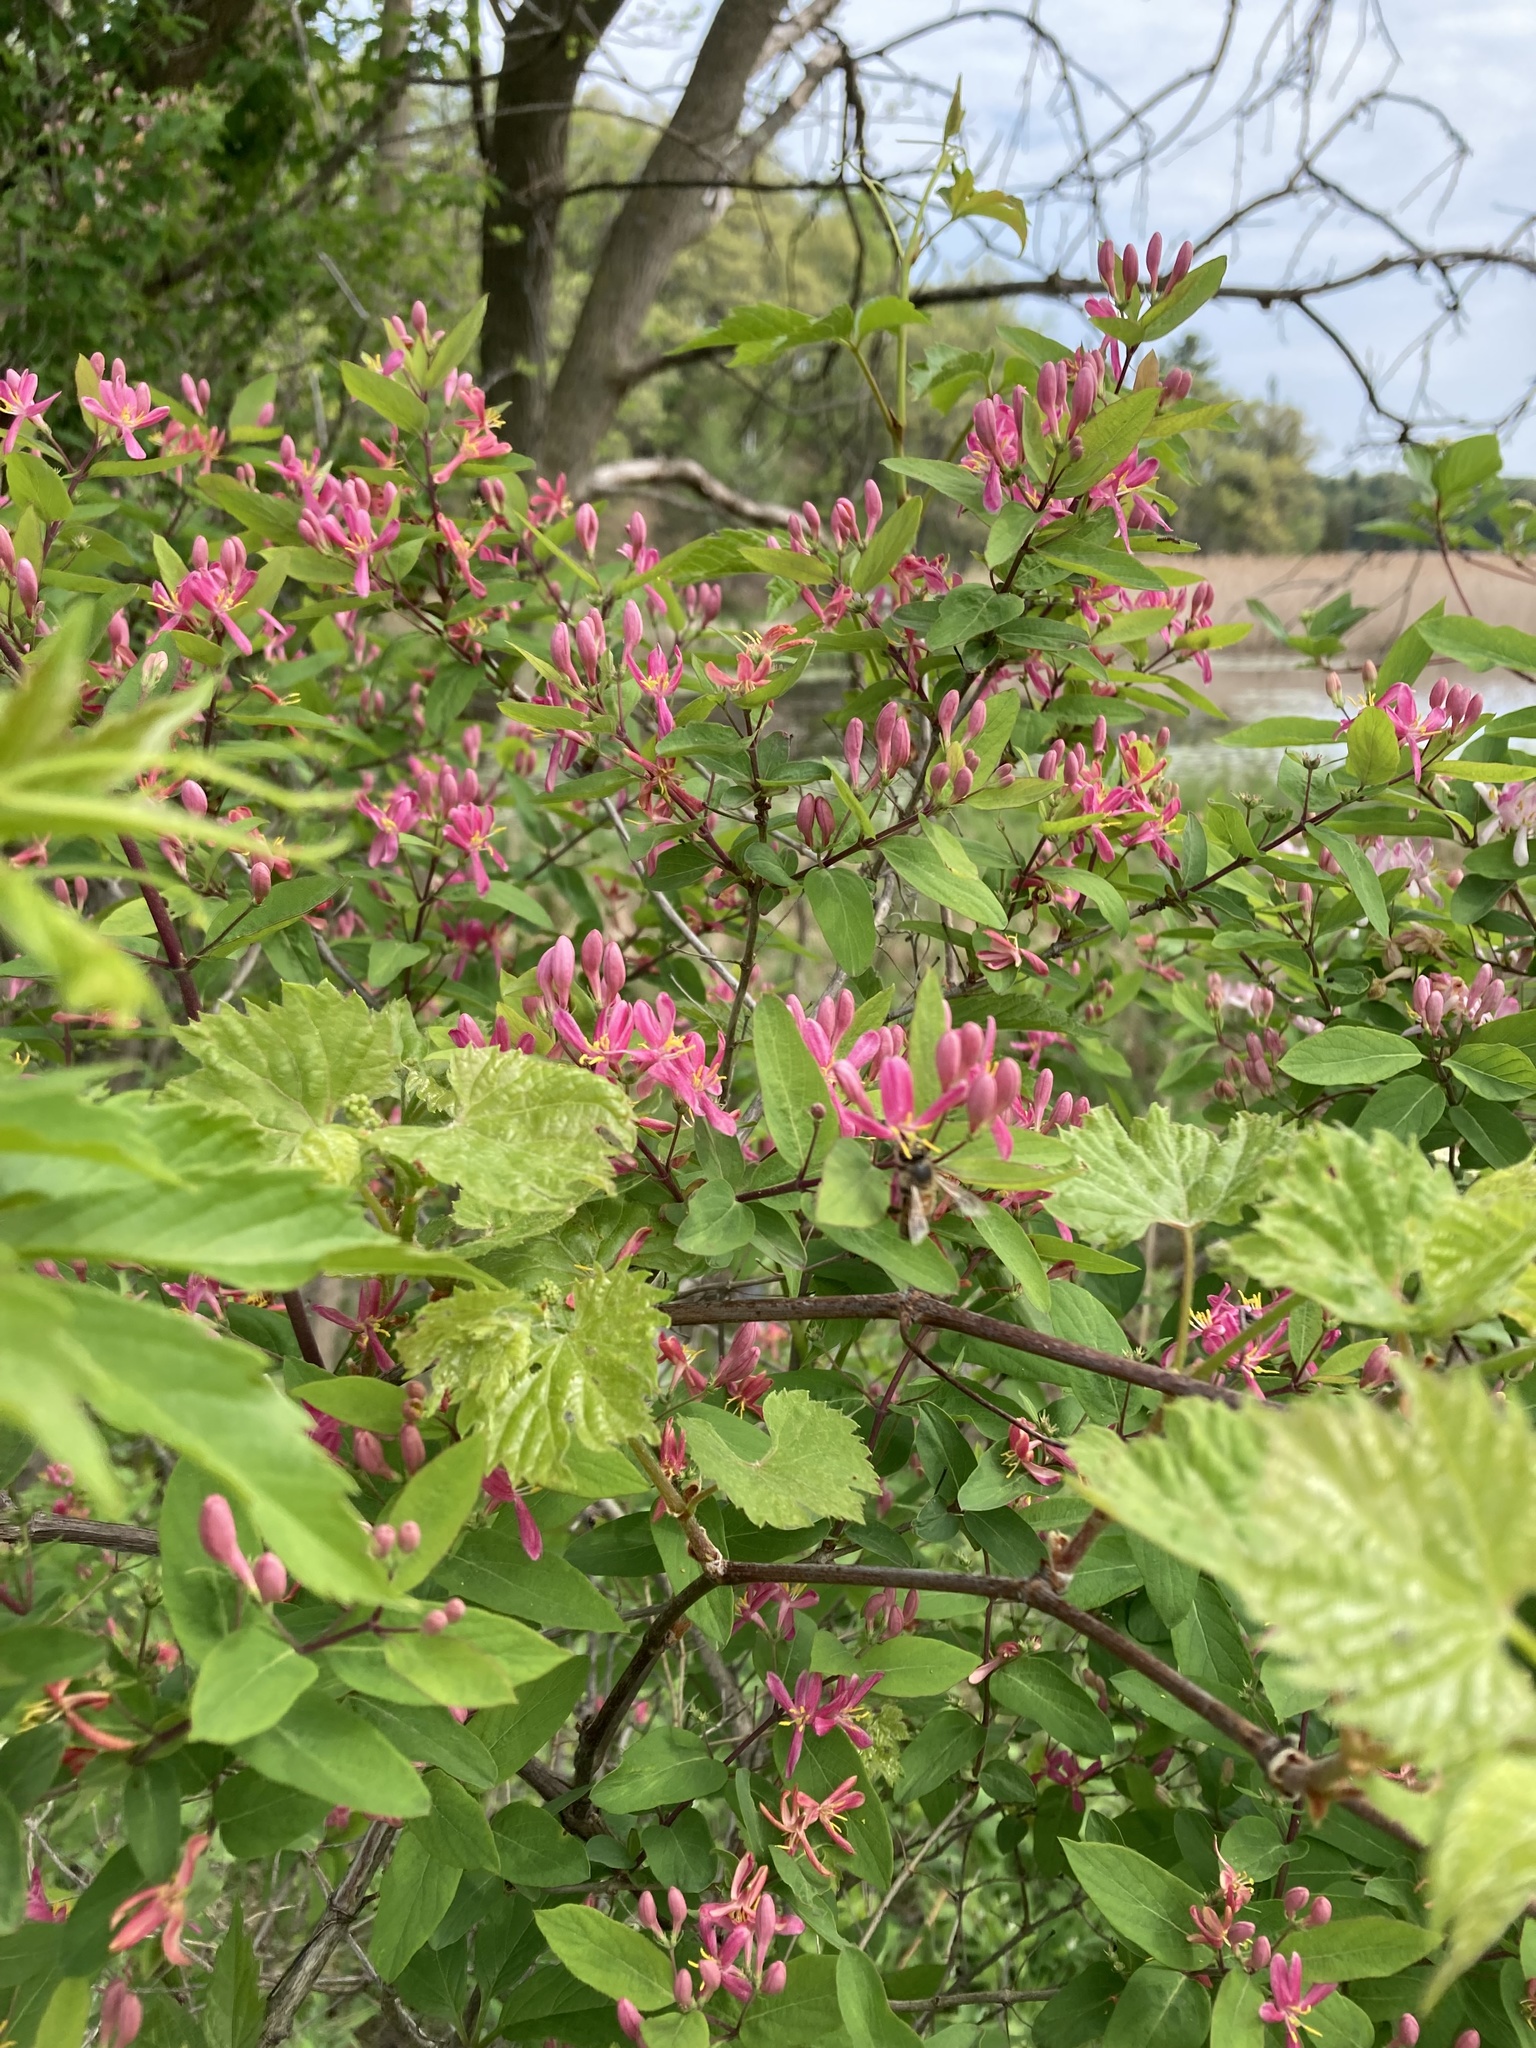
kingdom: Plantae
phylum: Tracheophyta
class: Magnoliopsida
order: Dipsacales
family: Caprifoliaceae
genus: Lonicera
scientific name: Lonicera tatarica
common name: Tatarian honeysuckle
